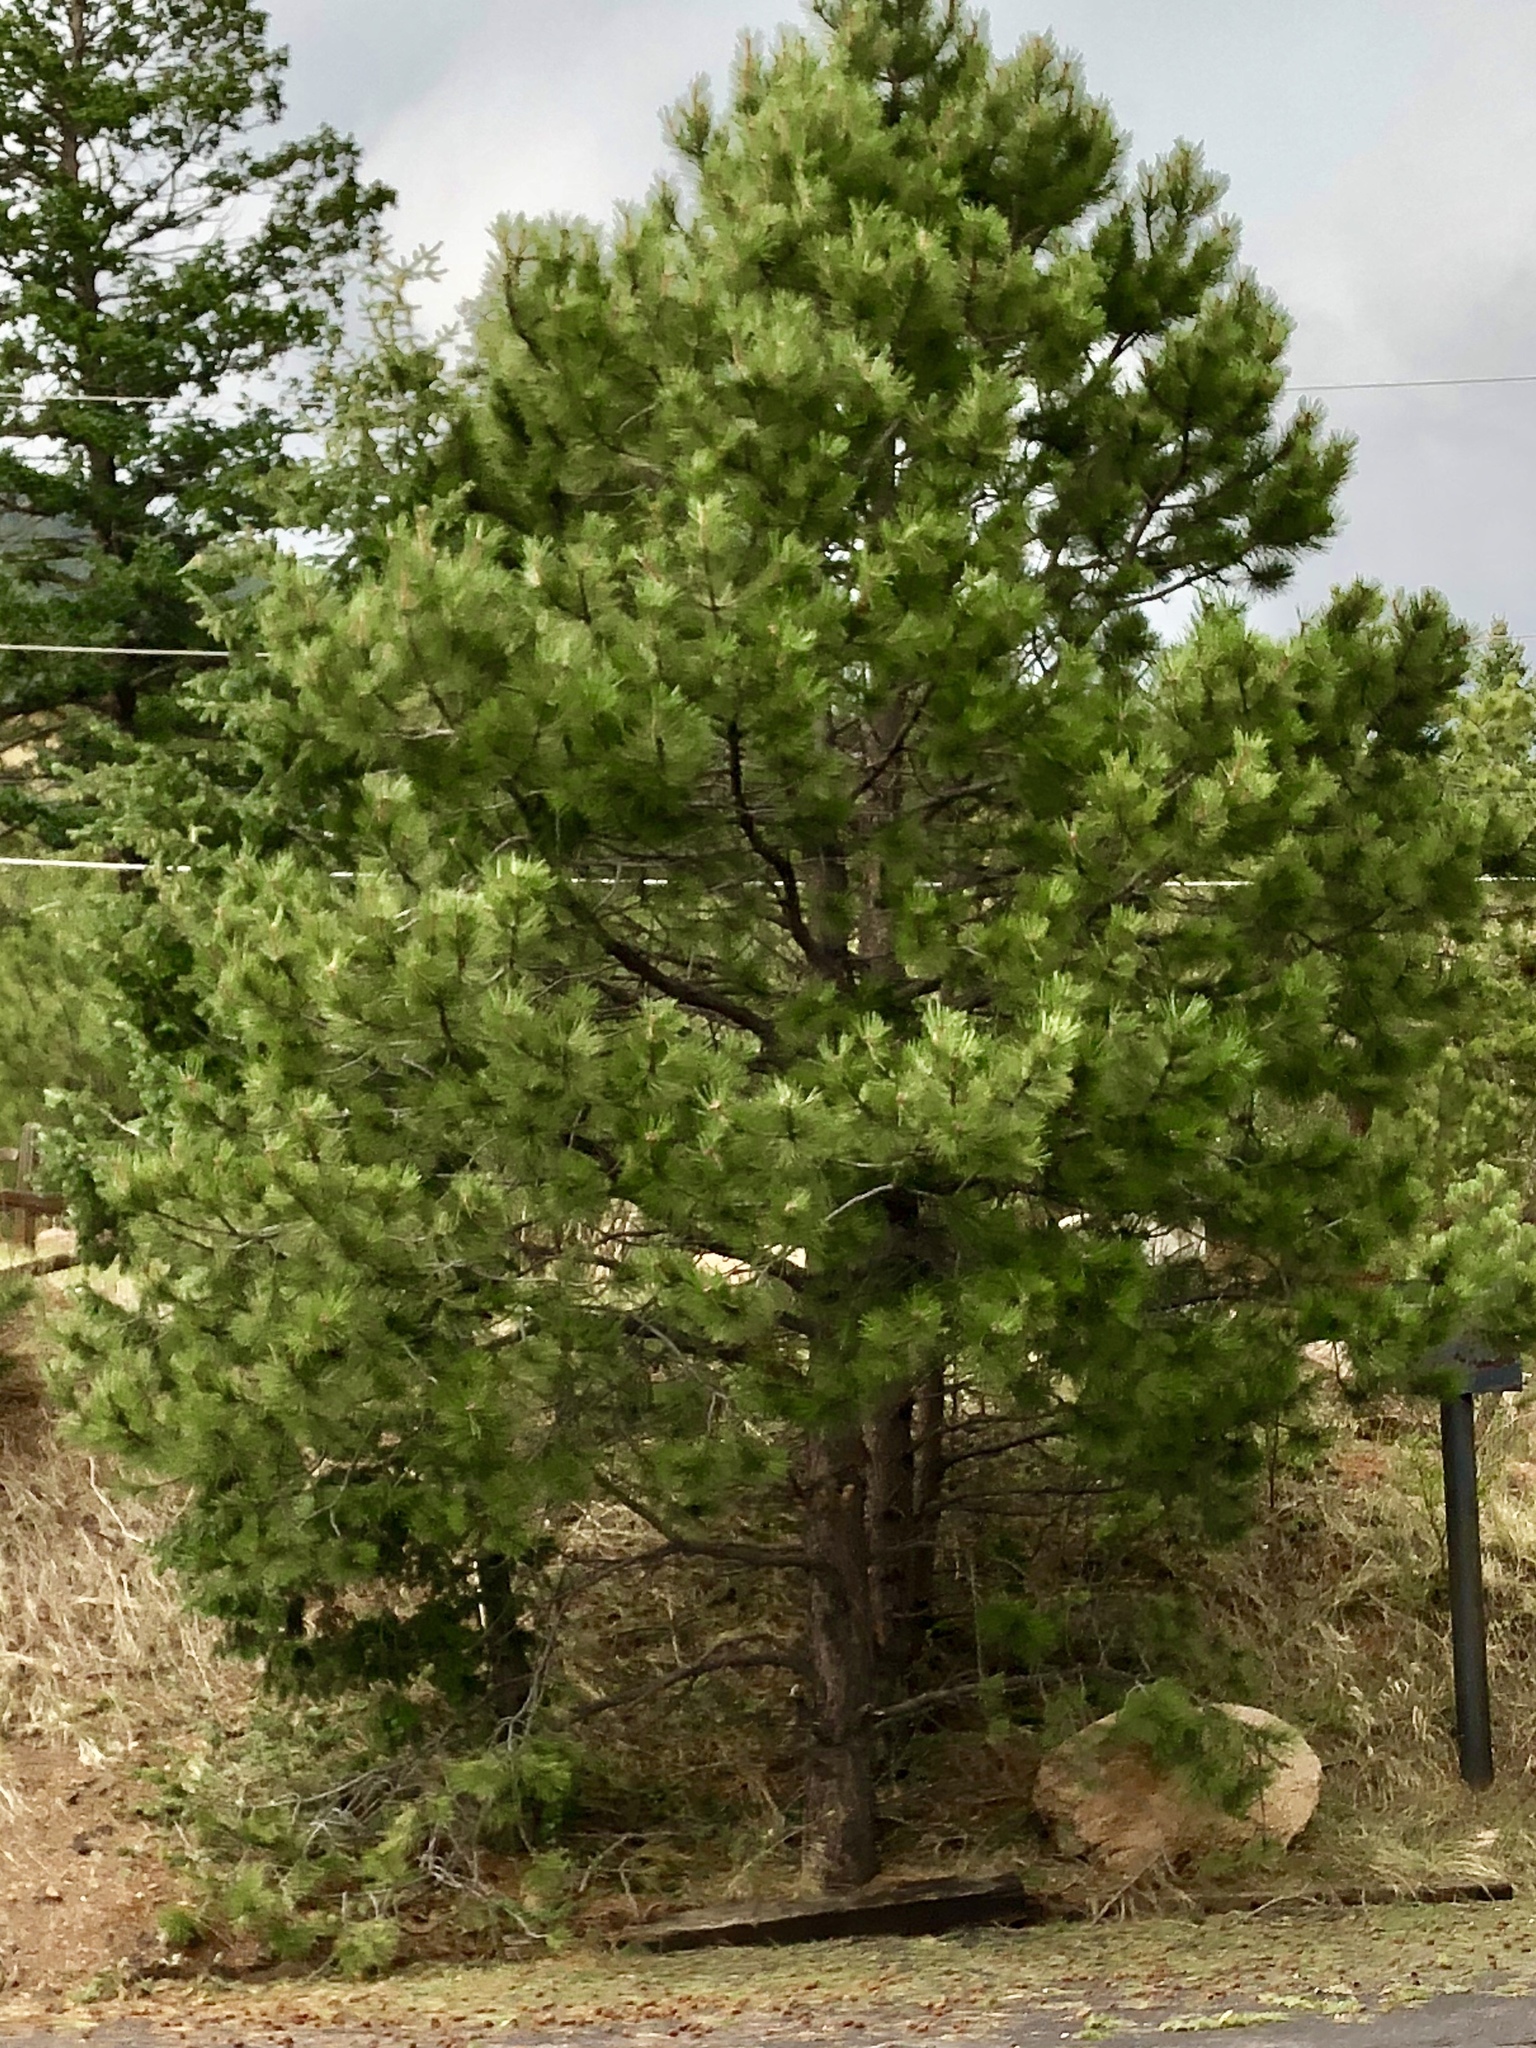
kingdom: Plantae
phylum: Tracheophyta
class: Pinopsida
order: Pinales
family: Pinaceae
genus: Pinus
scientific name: Pinus ponderosa
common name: Western yellow-pine
